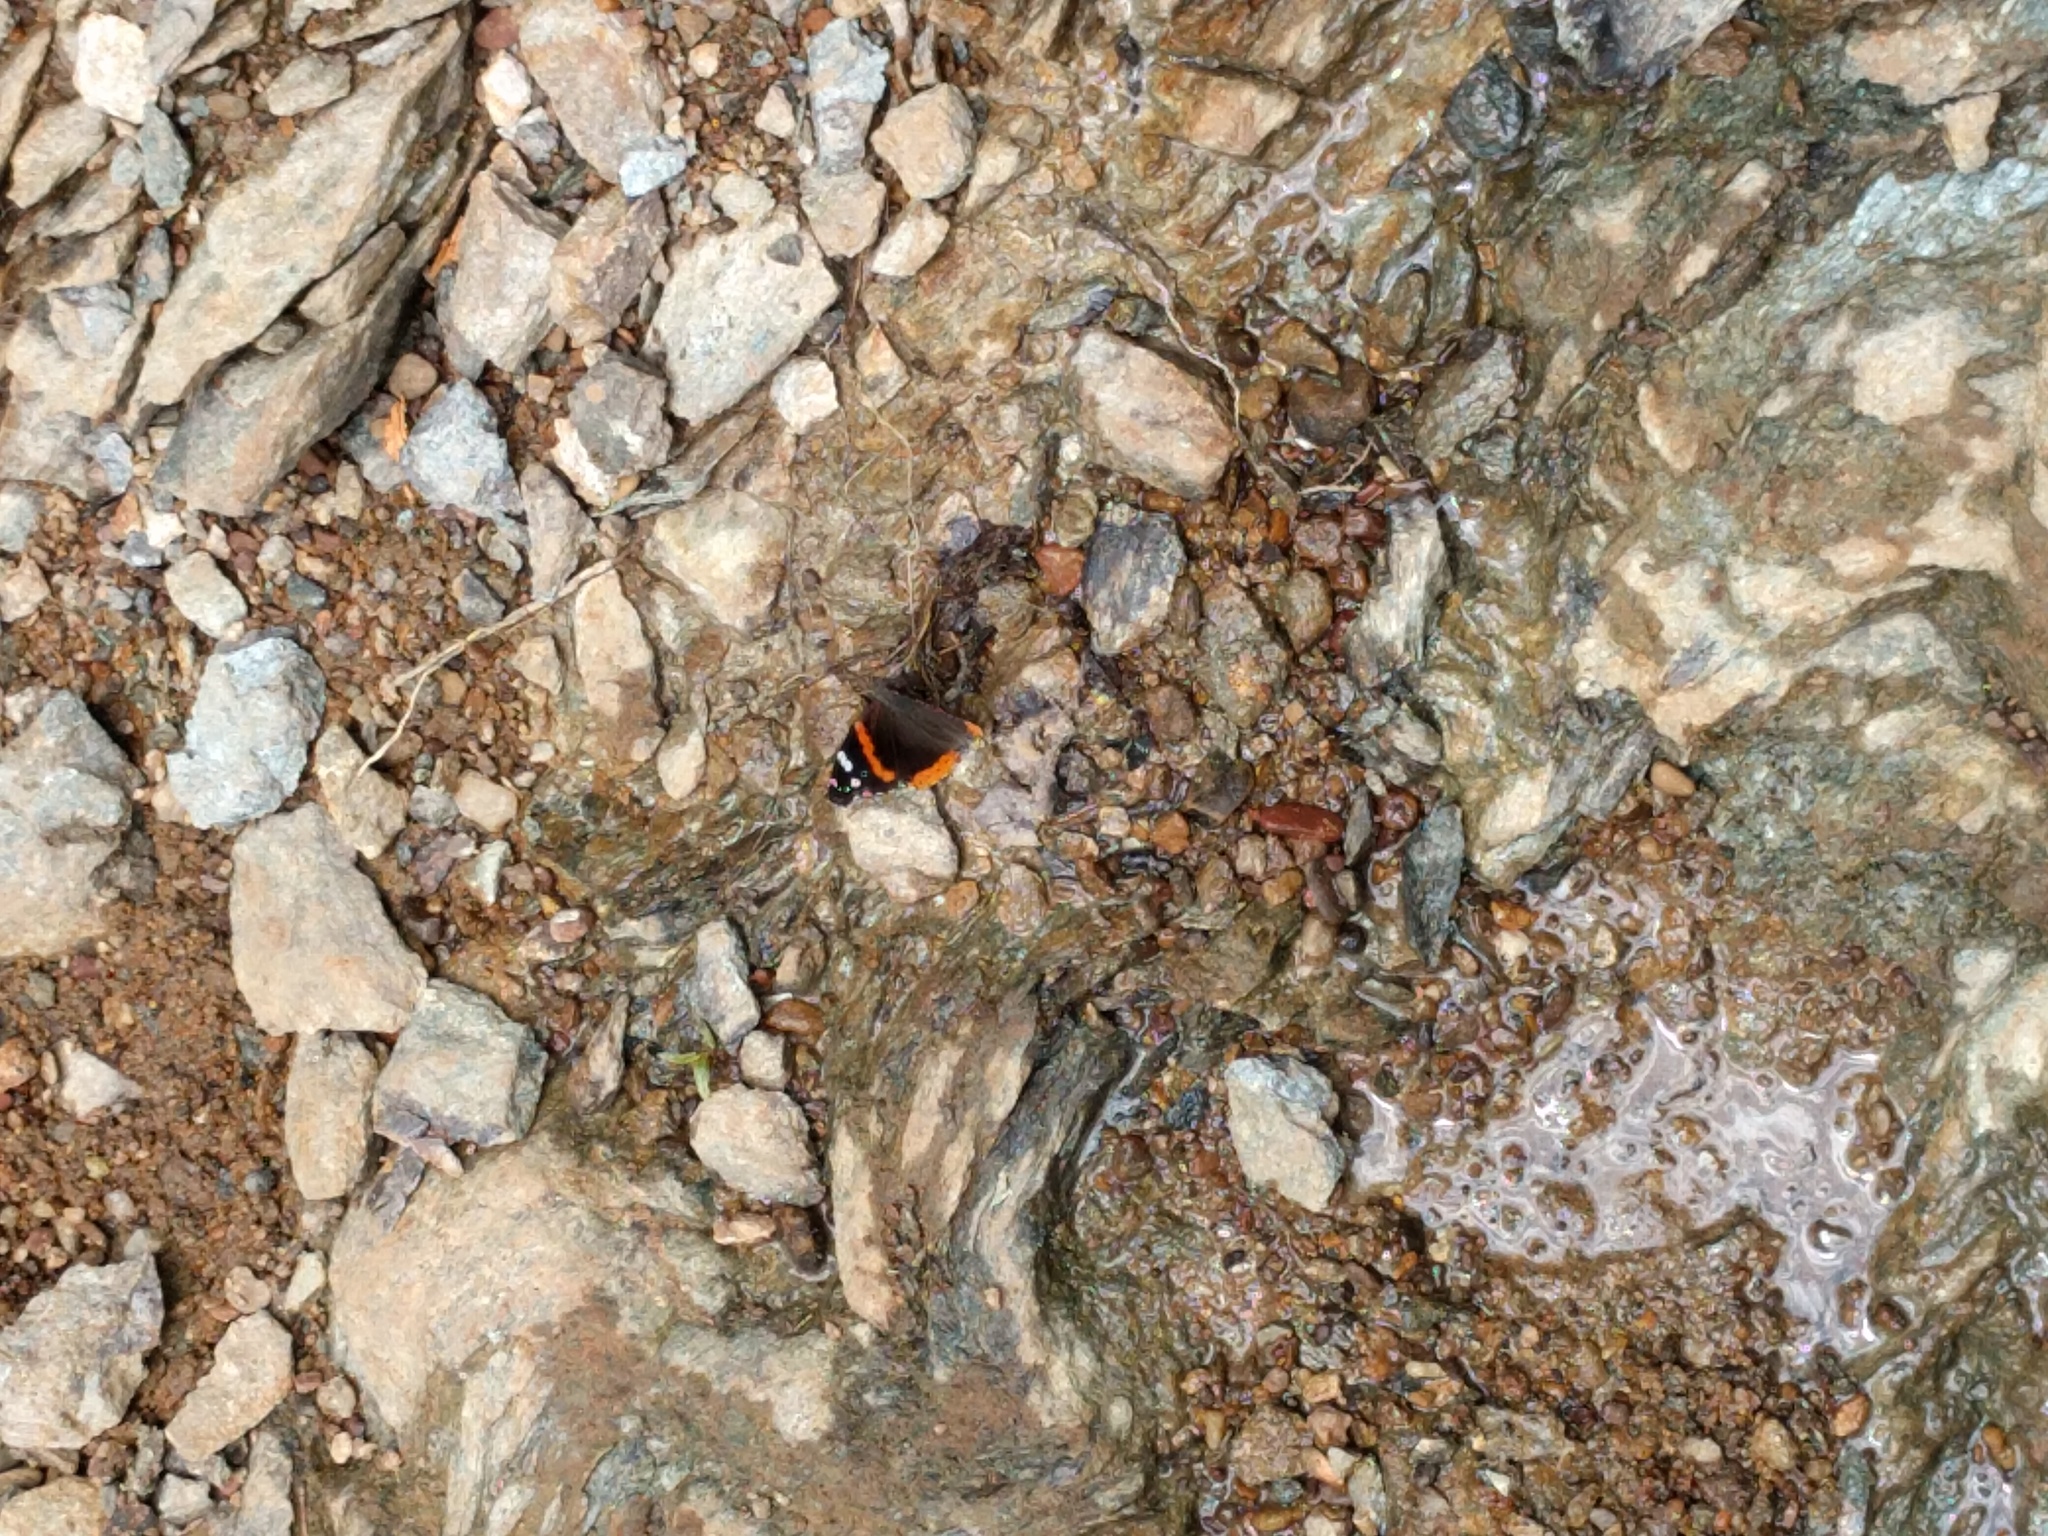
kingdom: Animalia
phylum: Arthropoda
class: Insecta
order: Lepidoptera
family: Nymphalidae
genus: Vanessa
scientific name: Vanessa atalanta
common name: Red admiral
